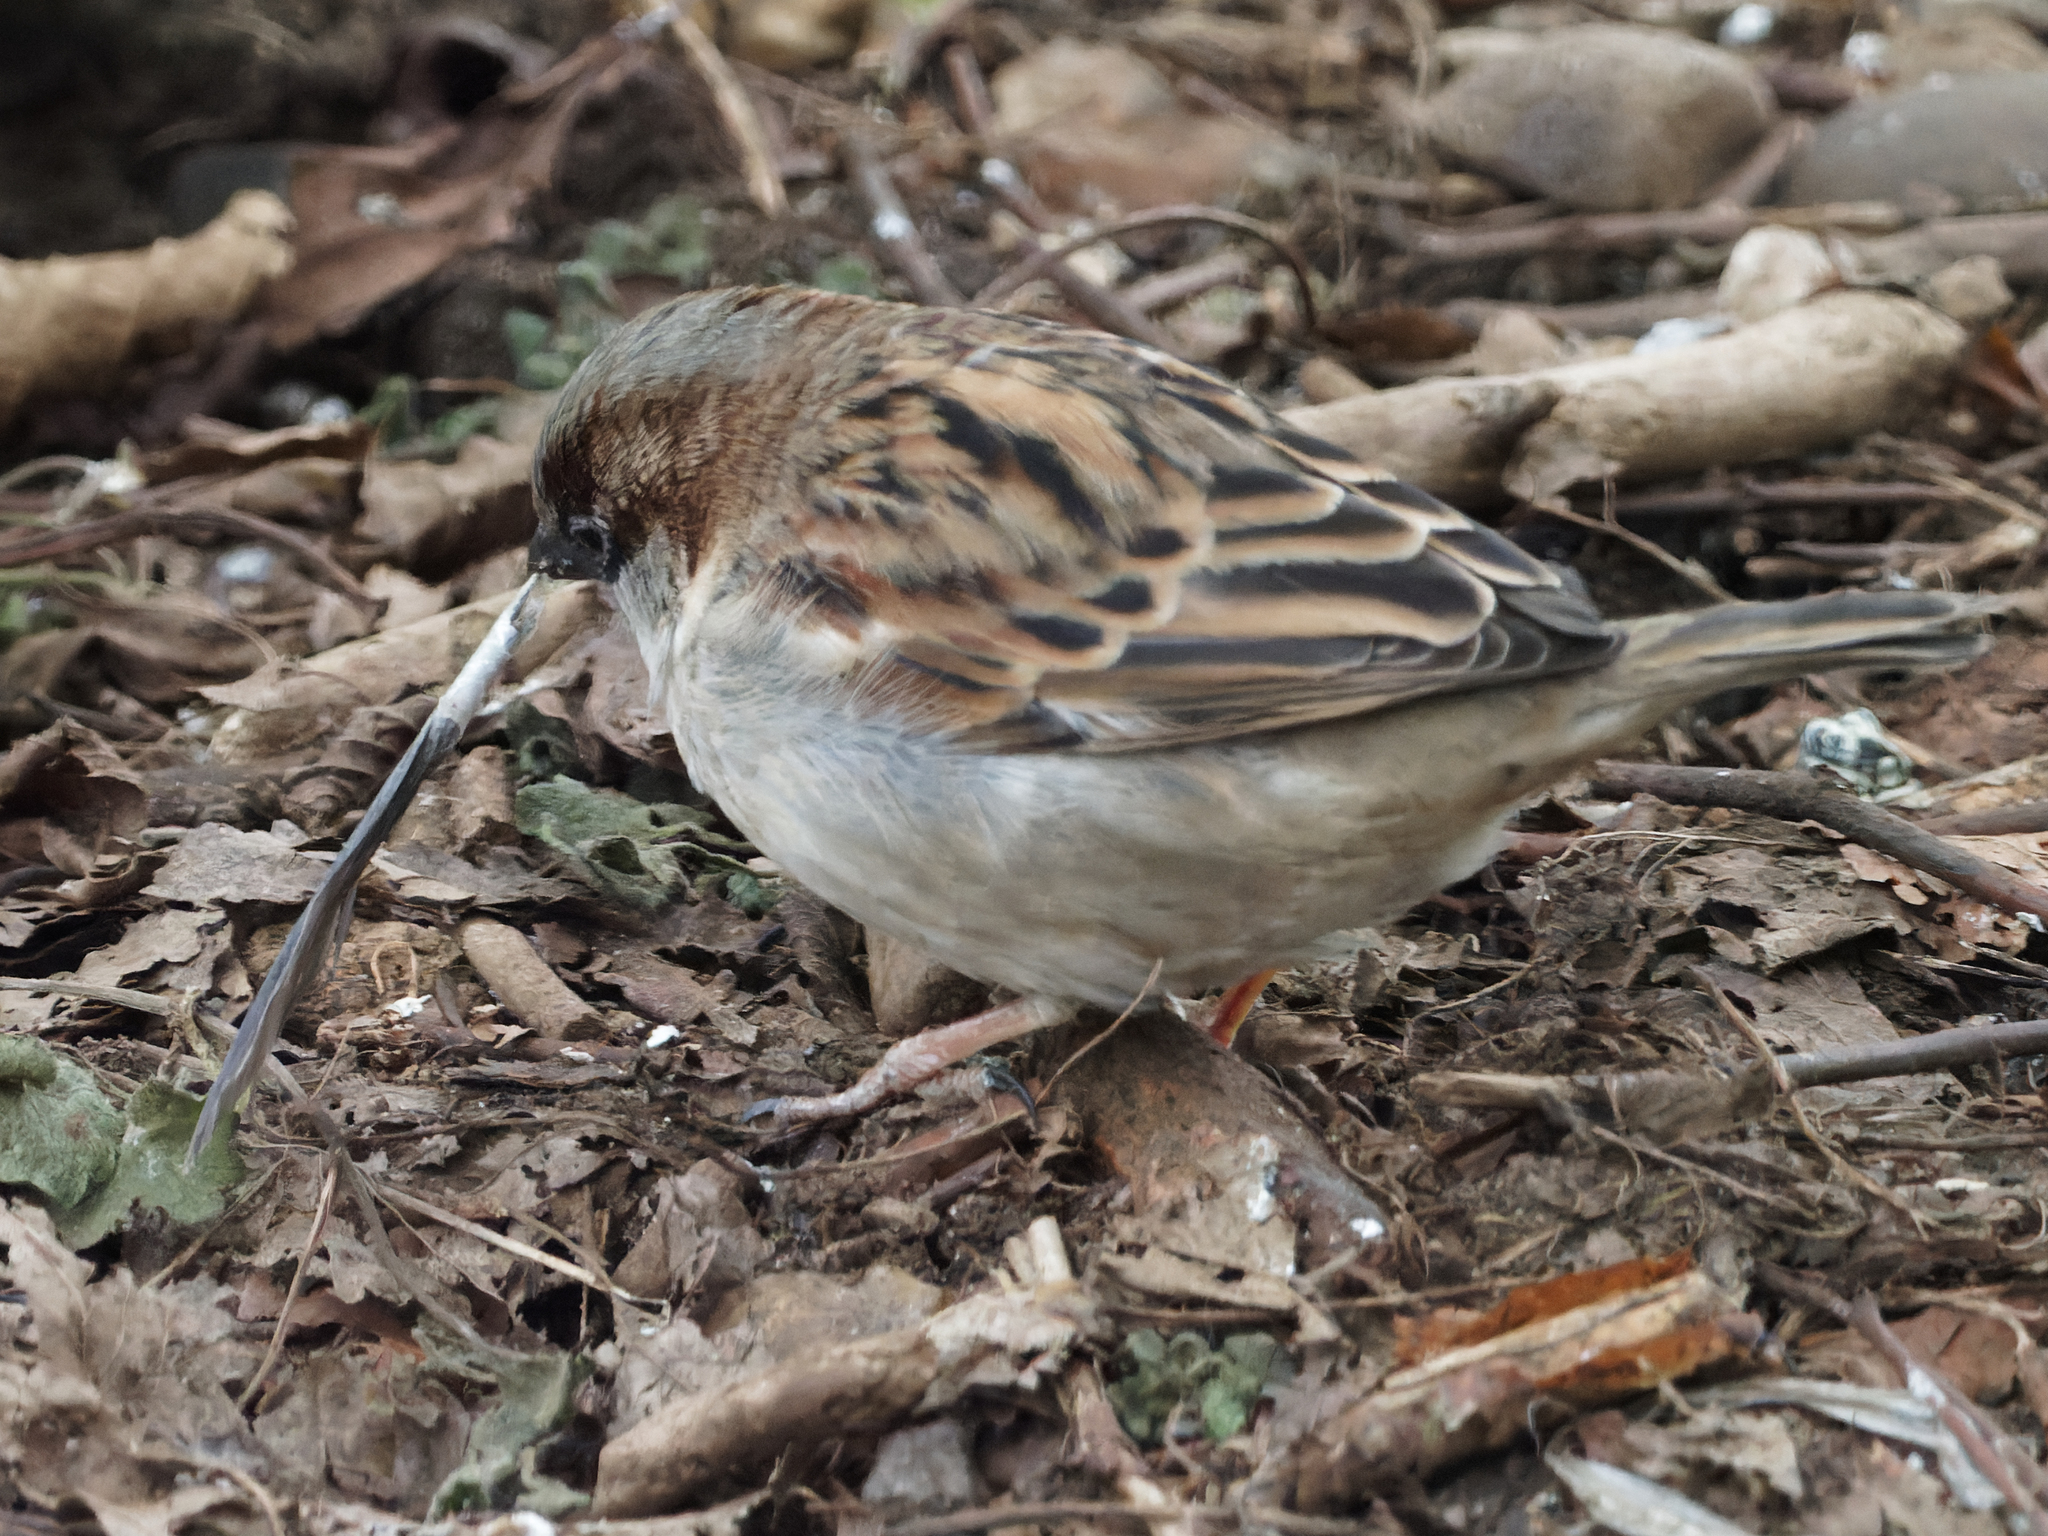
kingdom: Animalia
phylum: Chordata
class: Aves
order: Passeriformes
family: Passeridae
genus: Passer
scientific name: Passer domesticus
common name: House sparrow
